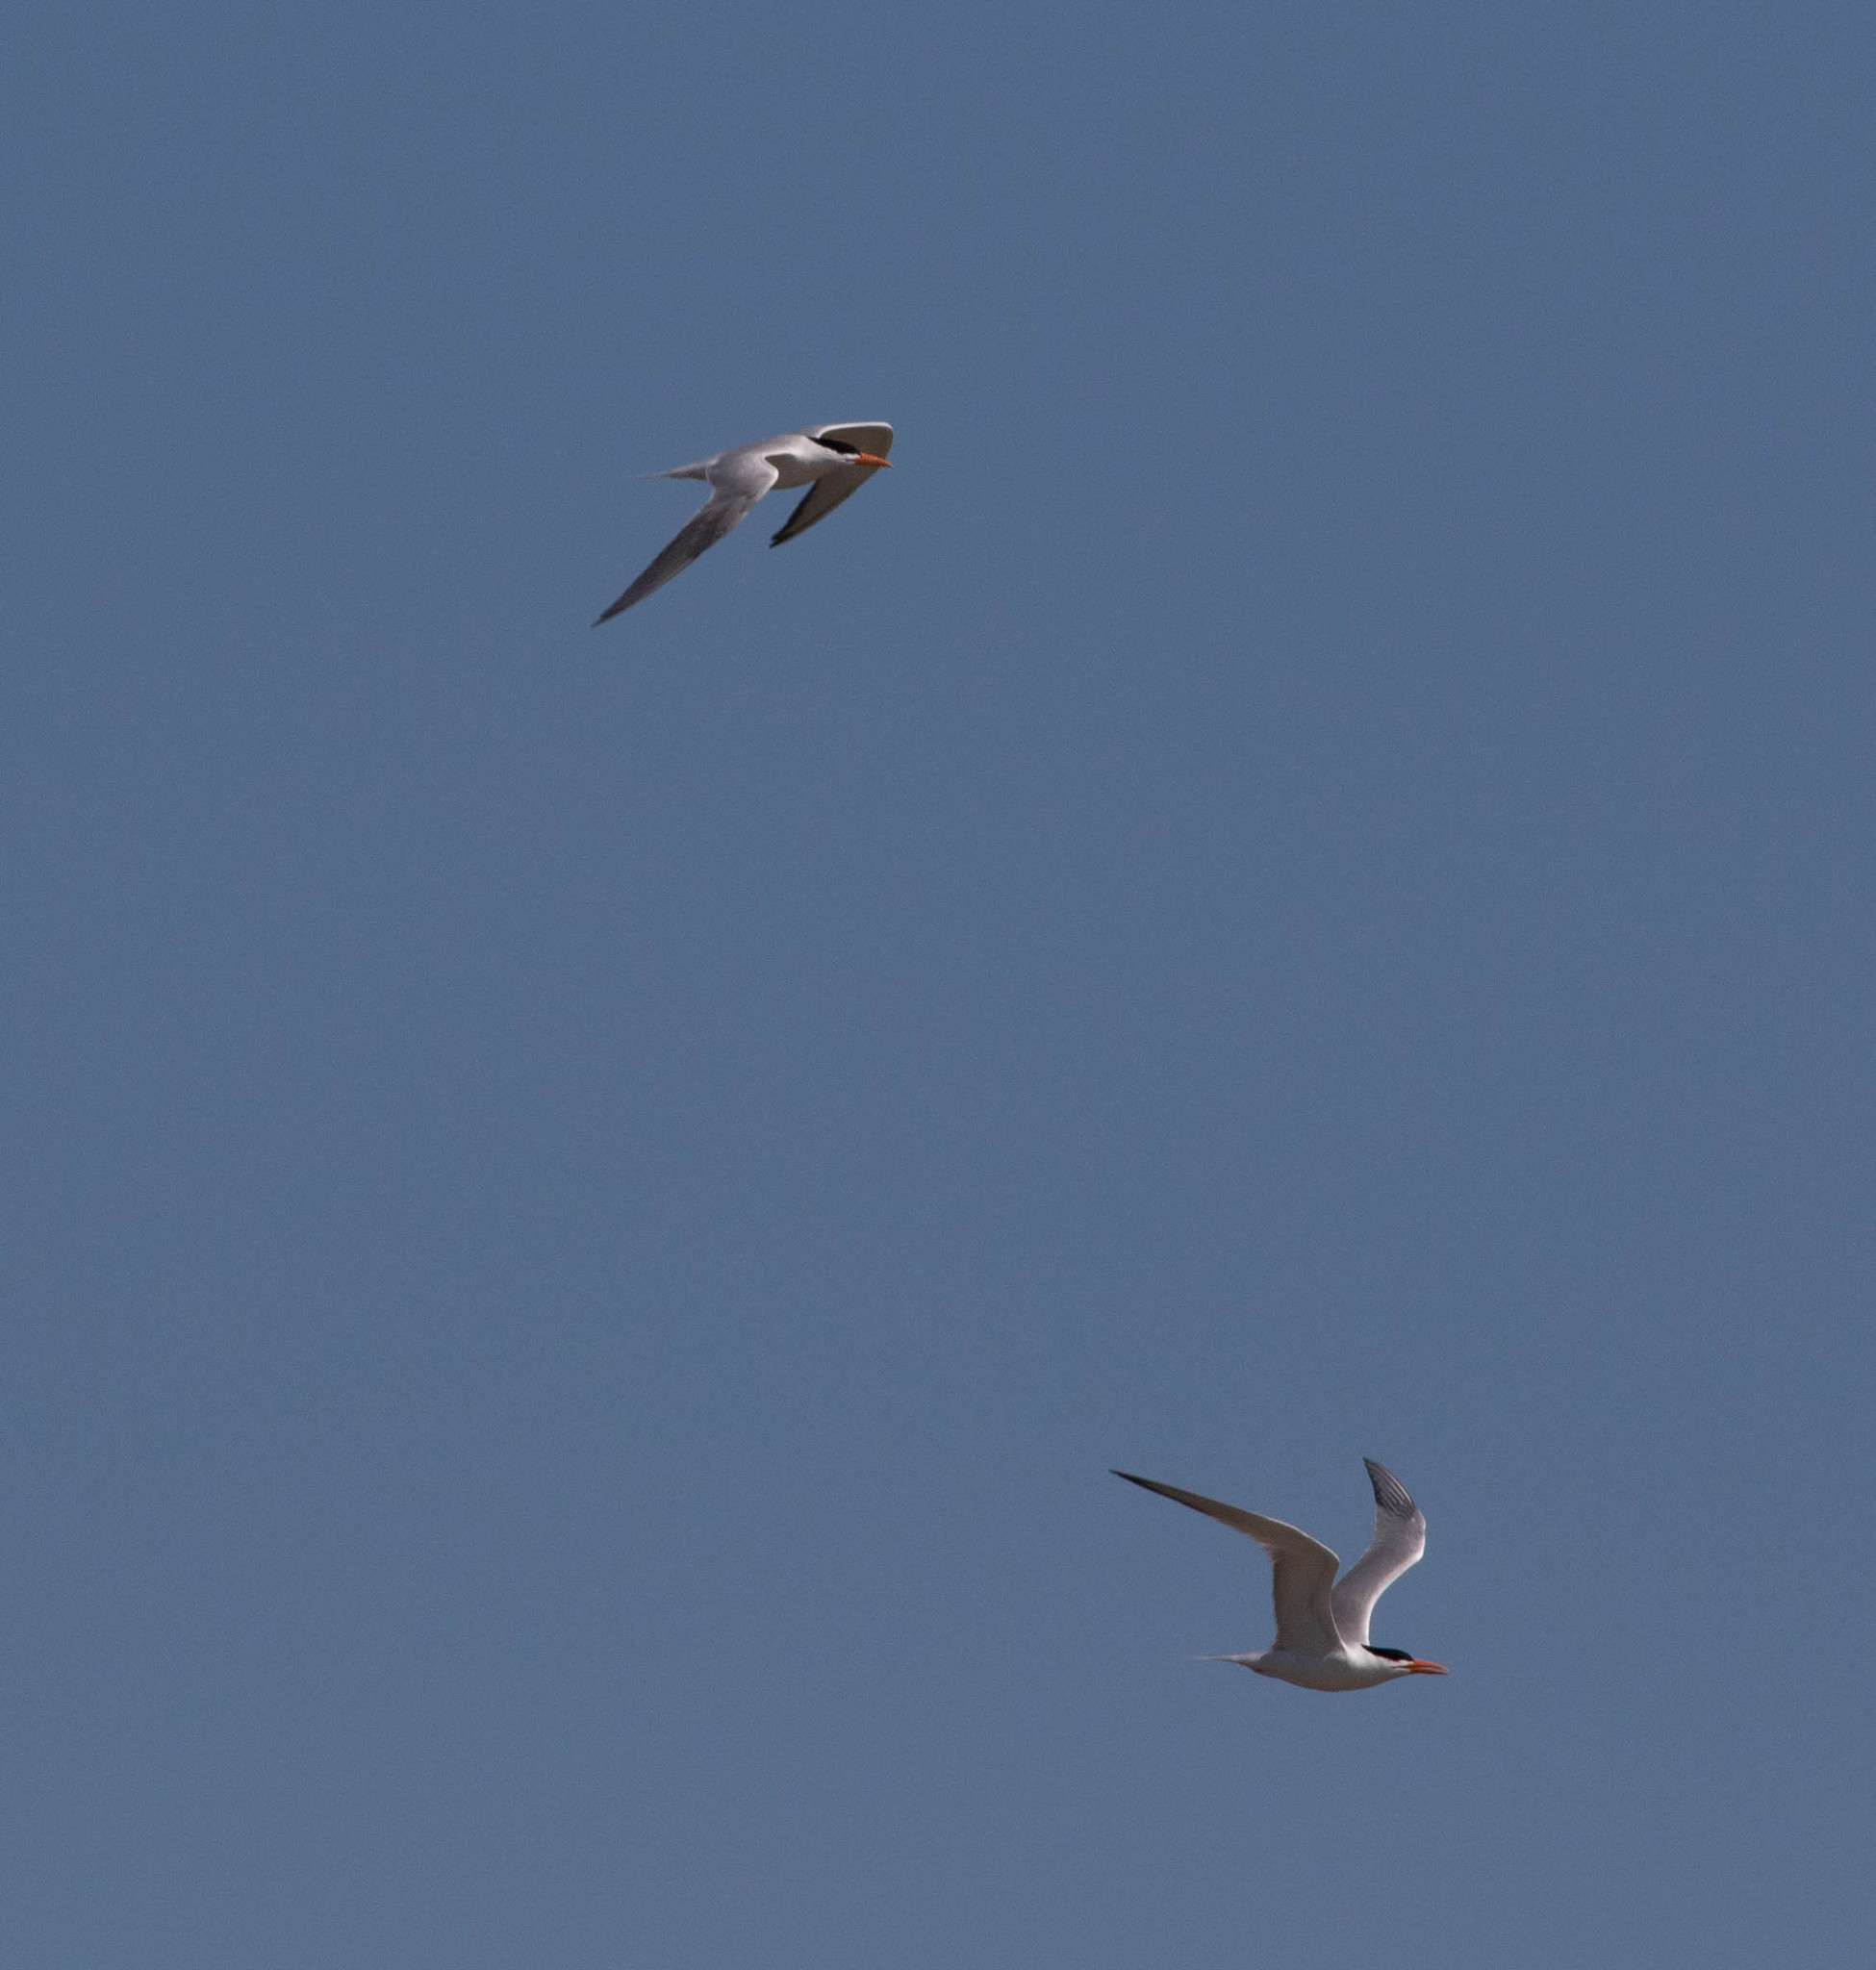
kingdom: Animalia
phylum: Chordata
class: Aves
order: Charadriiformes
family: Laridae
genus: Thalasseus
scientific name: Thalasseus maximus
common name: Royal tern
